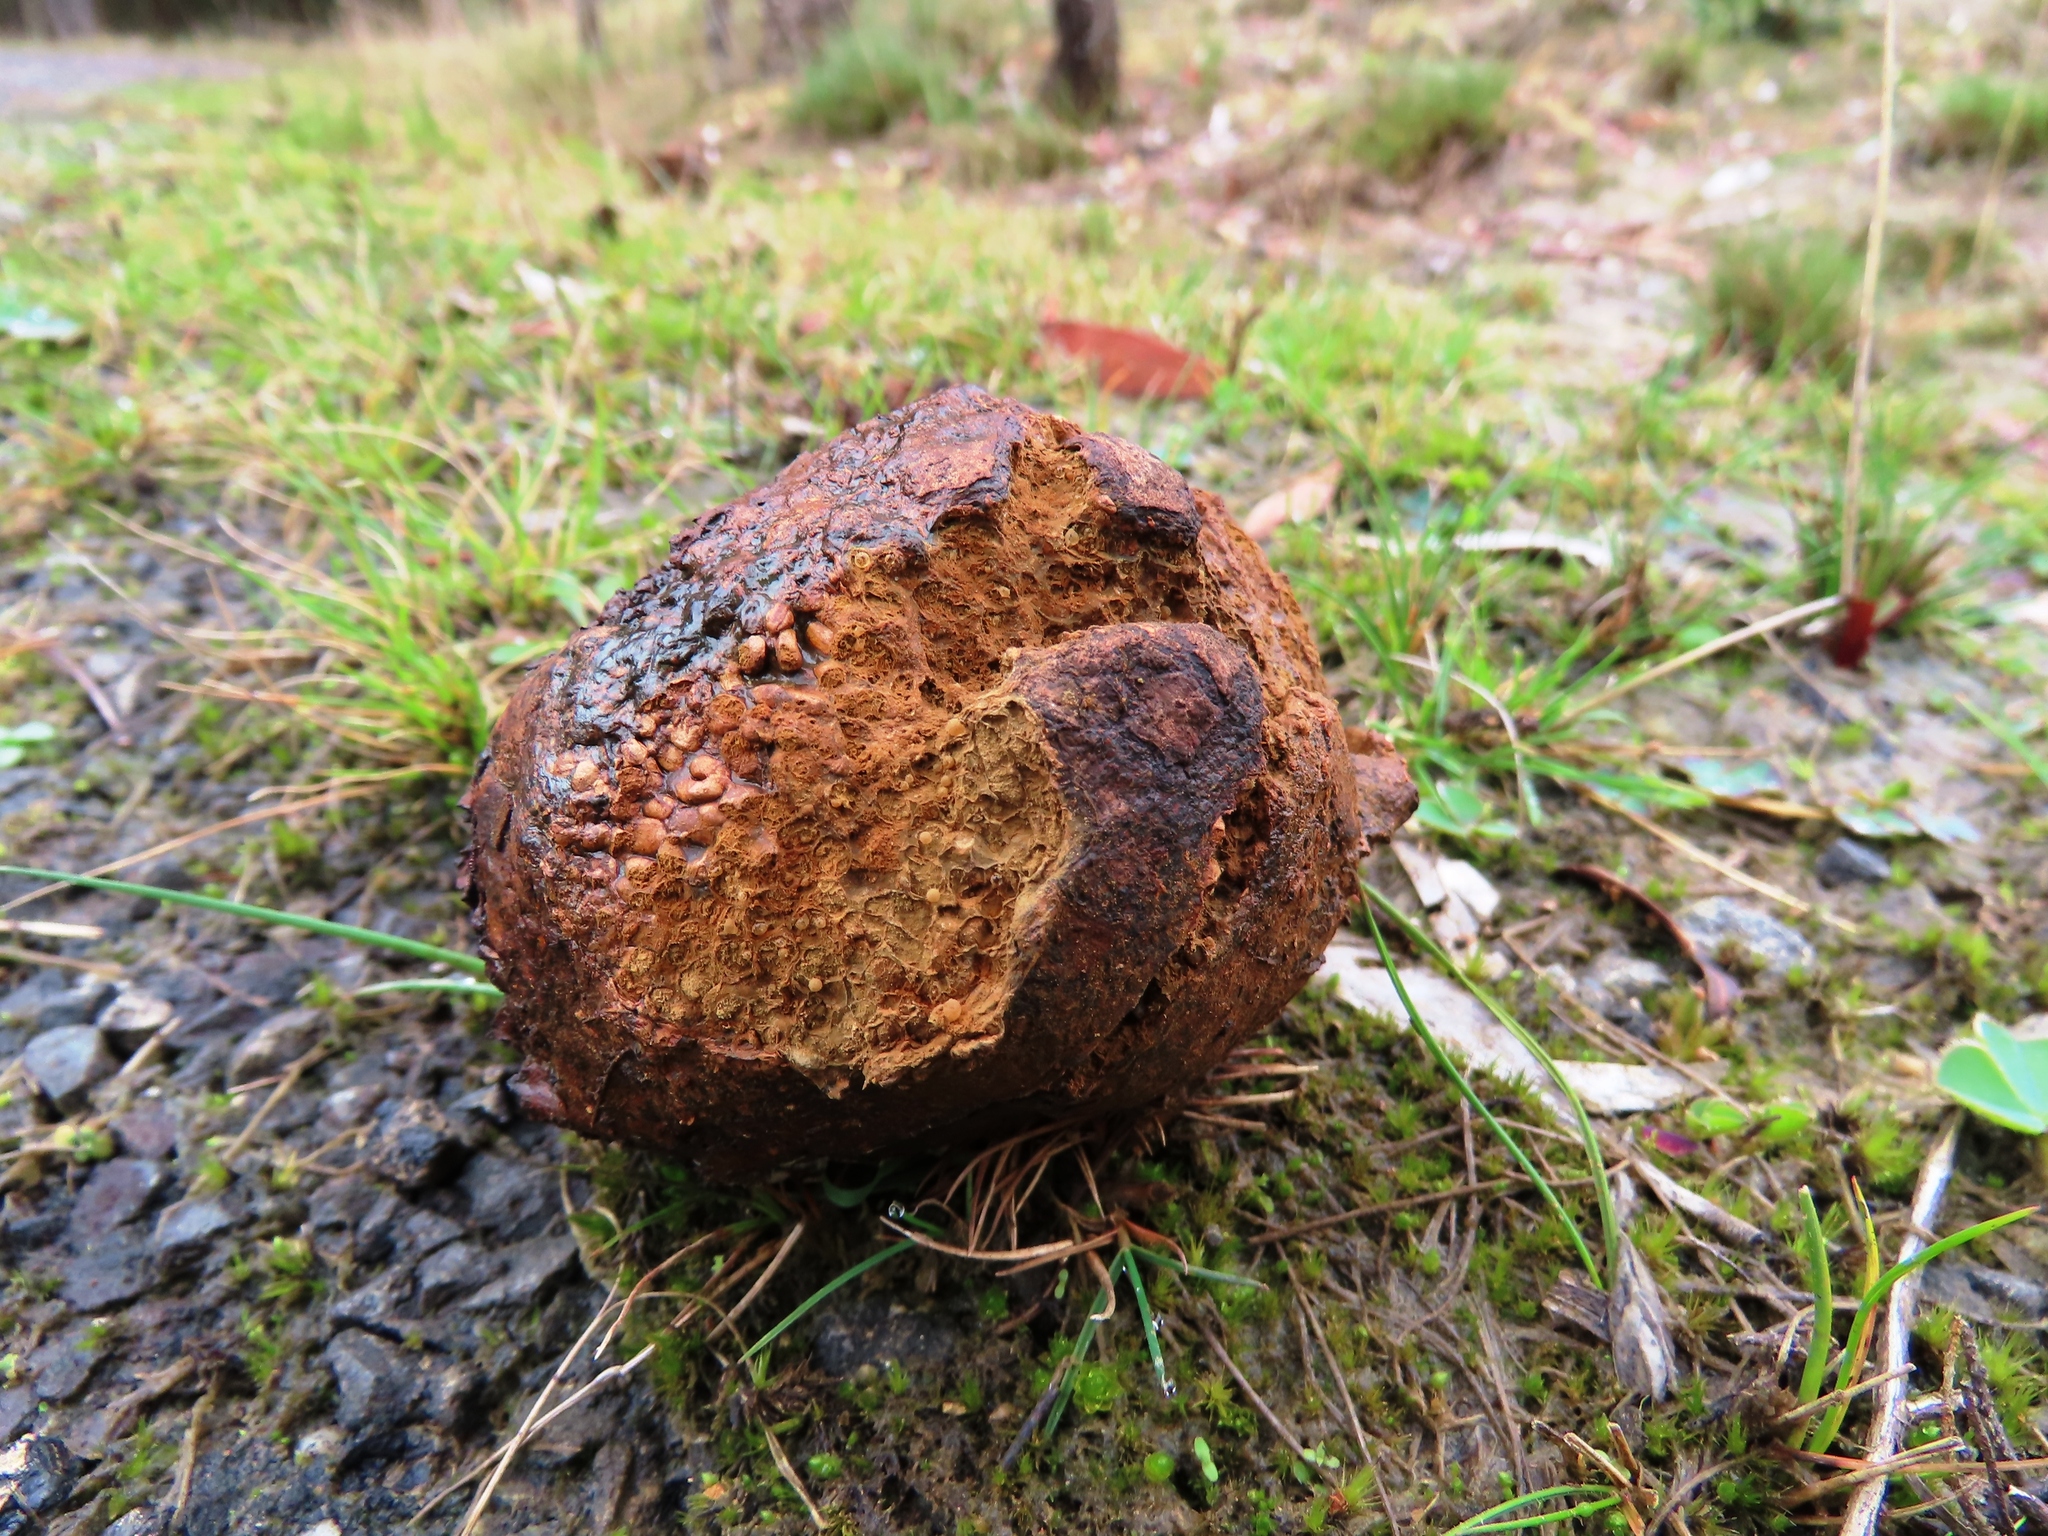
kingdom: Fungi
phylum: Basidiomycota
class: Agaricomycetes
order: Boletales
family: Sclerodermataceae
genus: Pisolithus
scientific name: Pisolithus arhizus
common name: Dyeball
